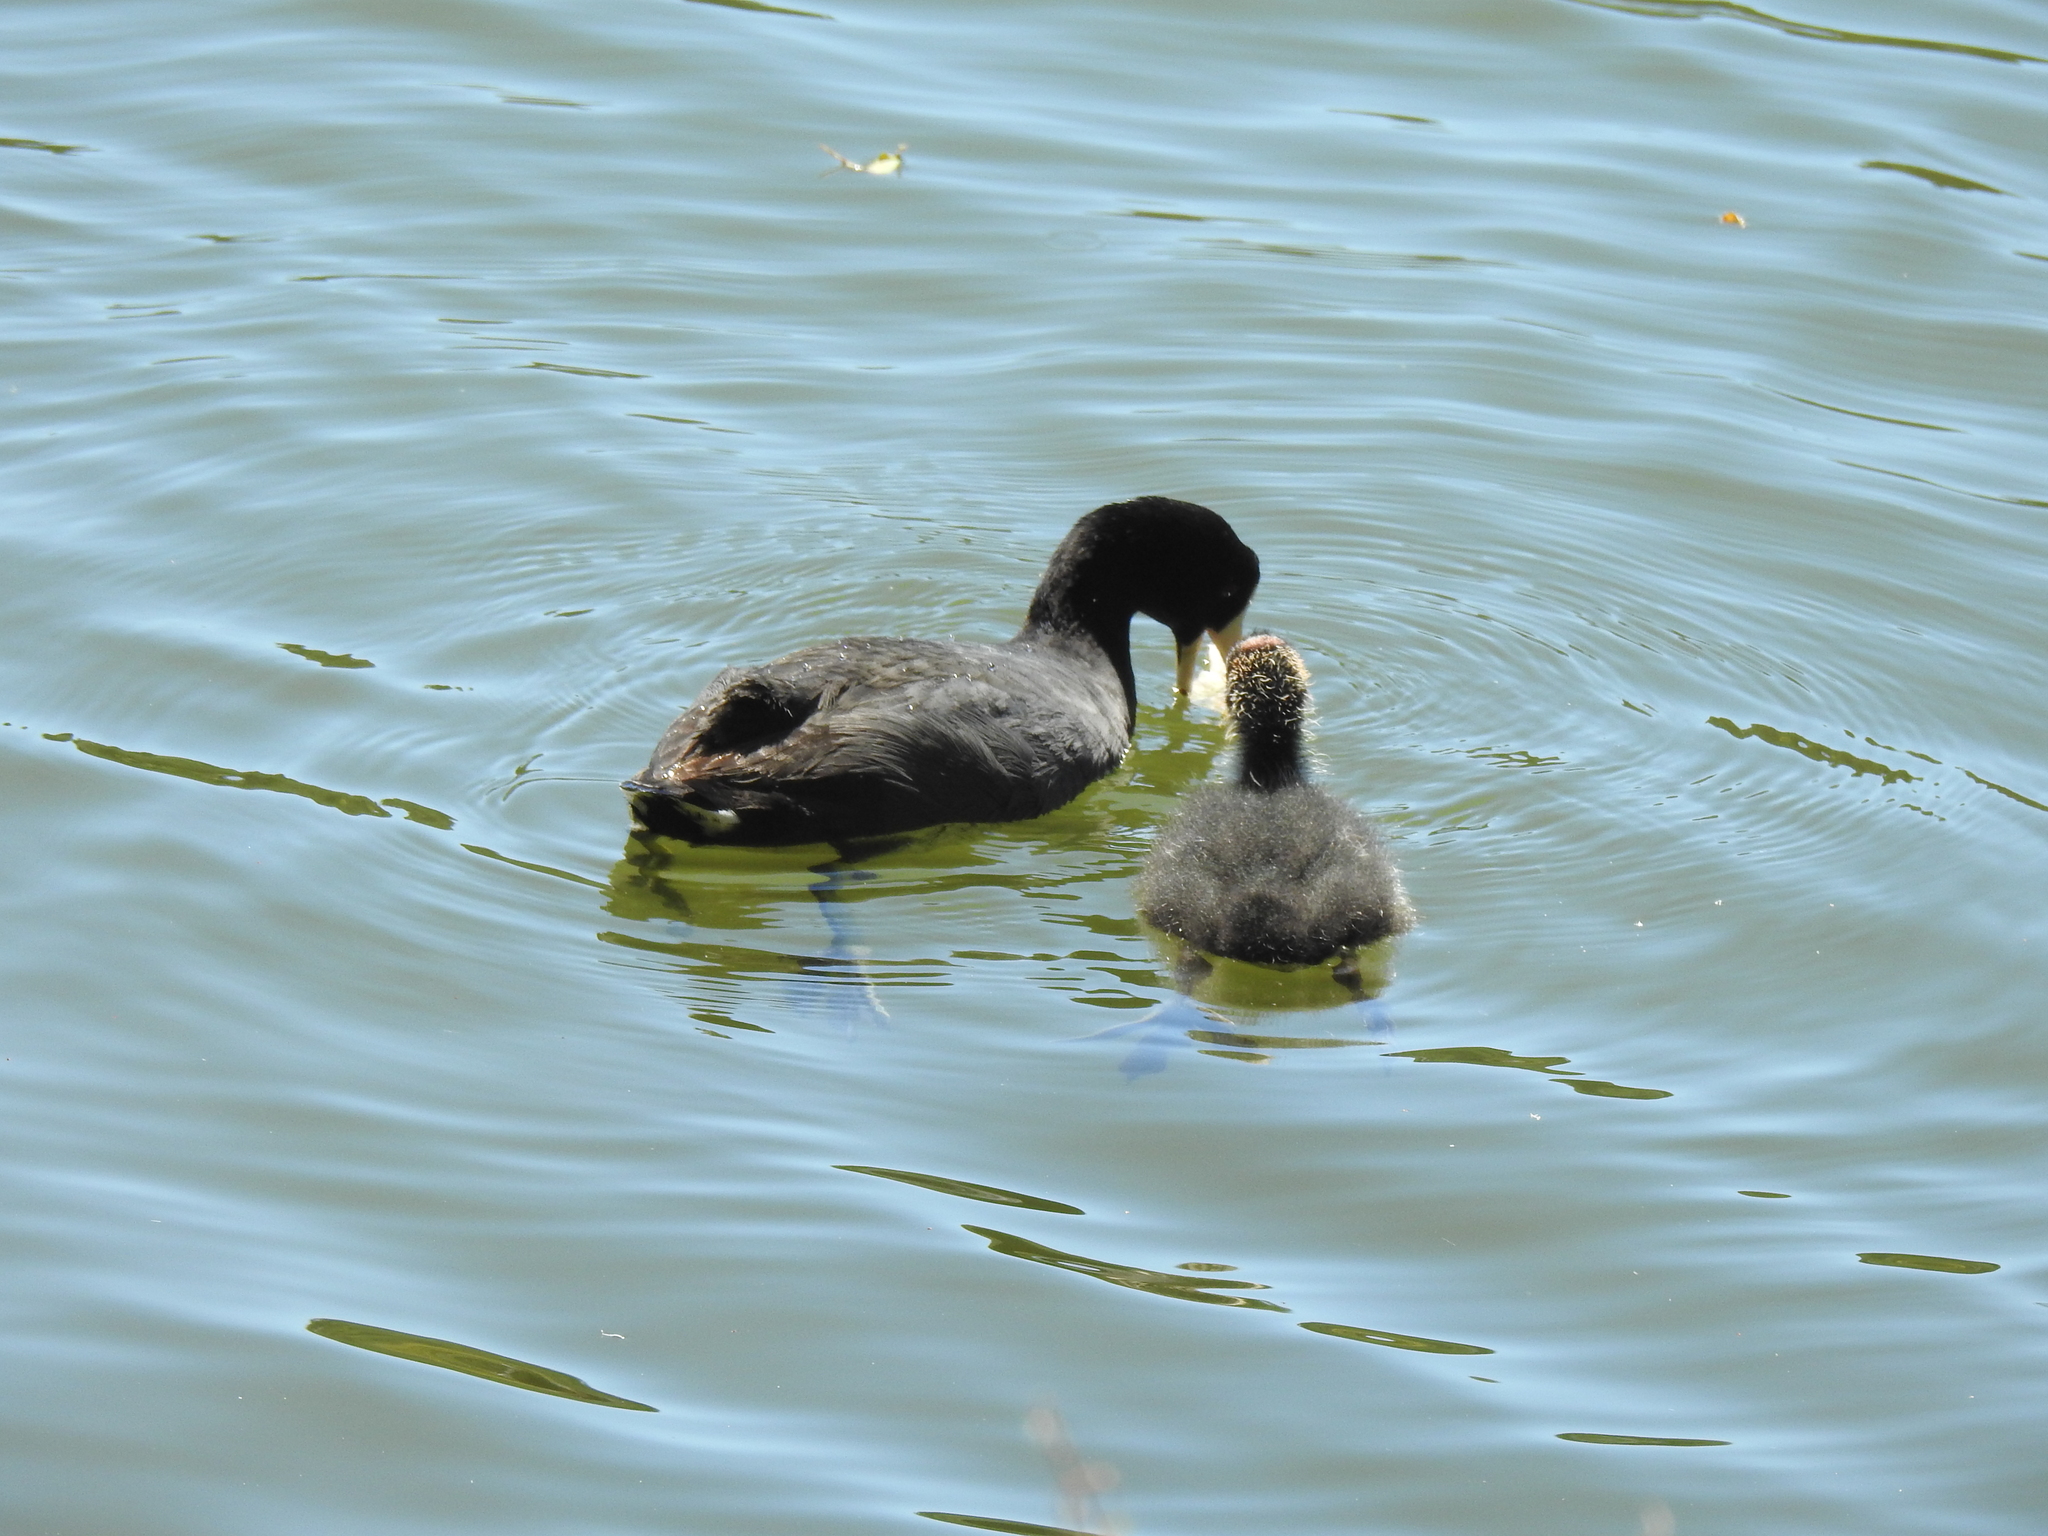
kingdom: Animalia
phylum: Chordata
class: Aves
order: Gruiformes
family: Rallidae
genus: Fulica
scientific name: Fulica americana
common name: American coot
